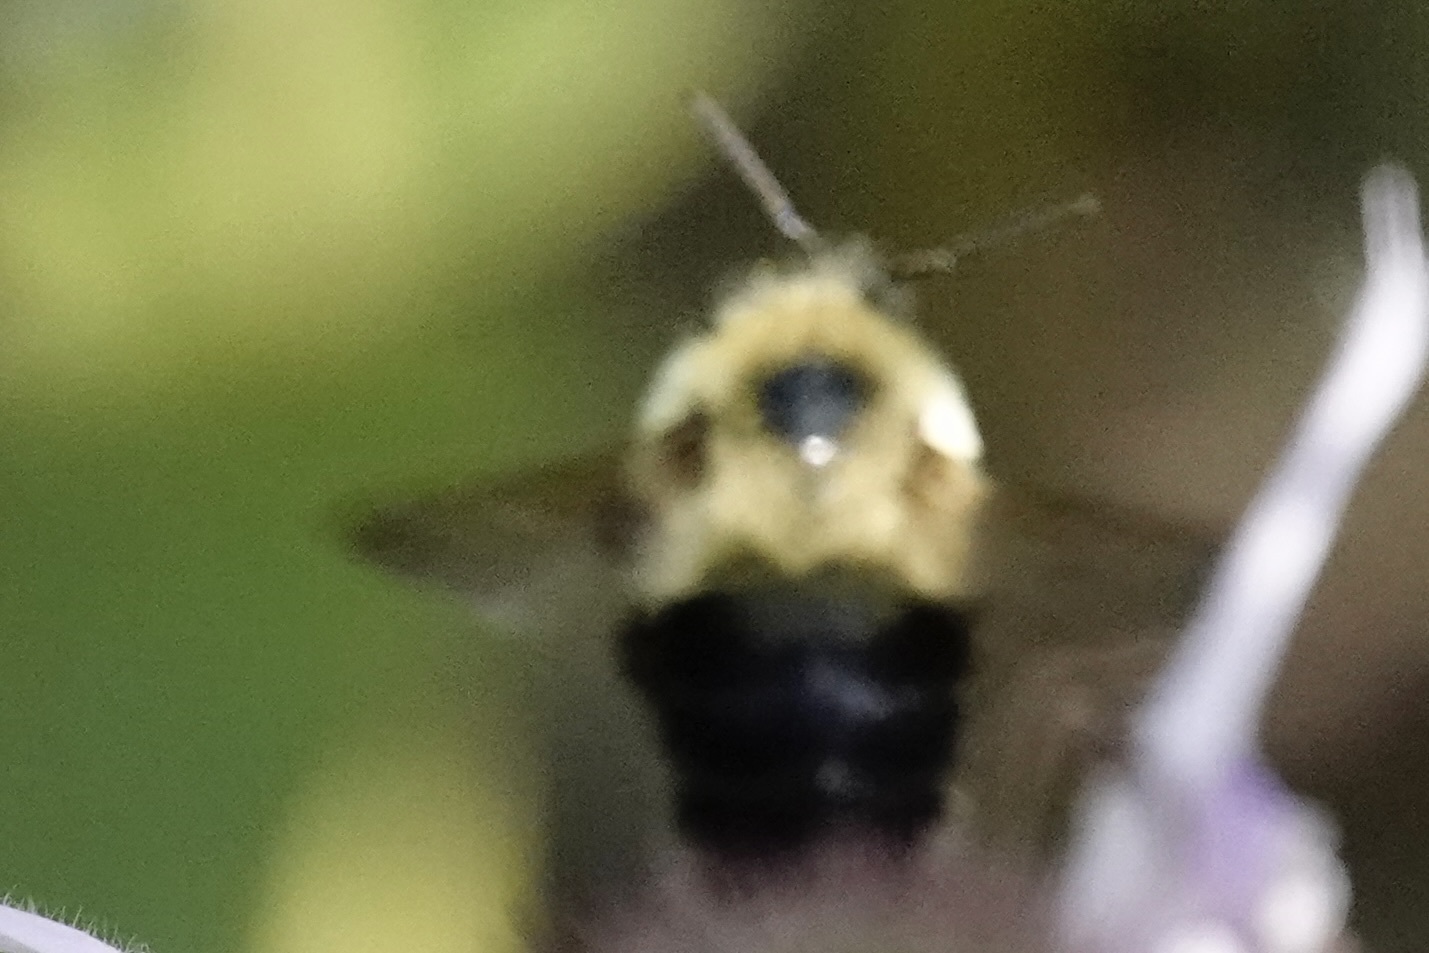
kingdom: Animalia
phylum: Arthropoda
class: Insecta
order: Hymenoptera
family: Apidae
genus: Bombus
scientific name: Bombus bimaculatus
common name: Two-spotted bumble bee
